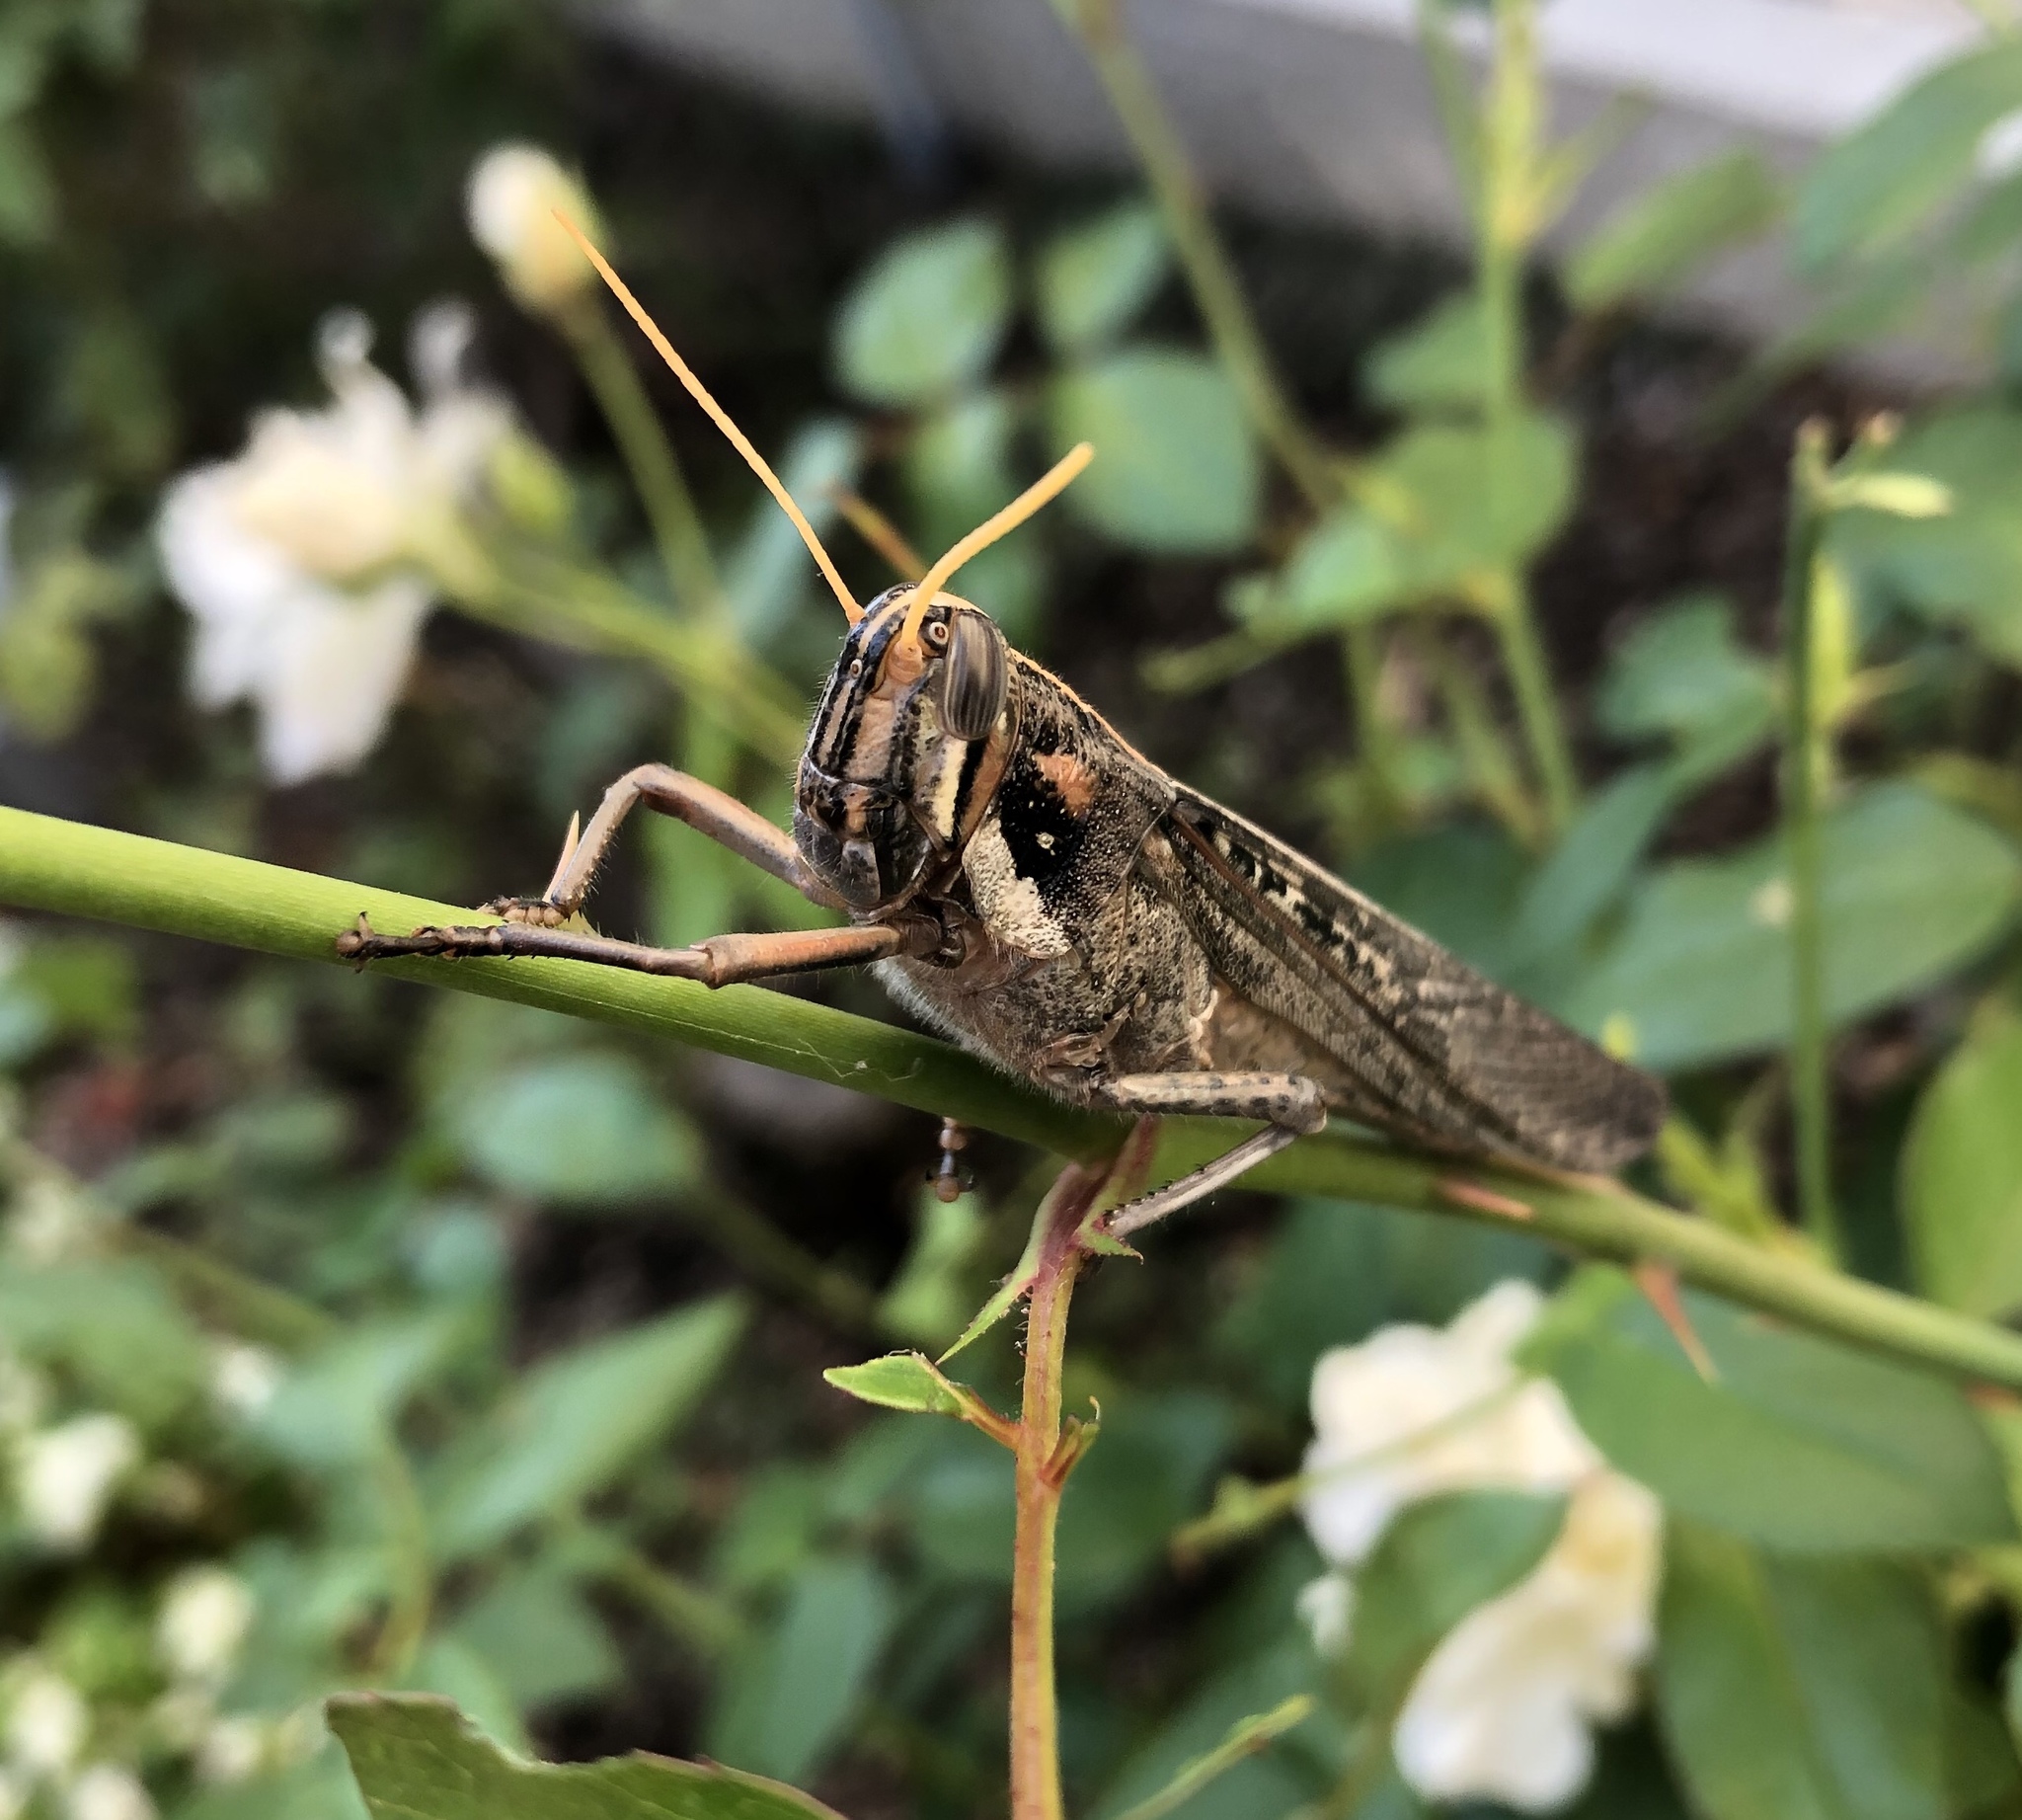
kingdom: Animalia
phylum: Arthropoda
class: Insecta
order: Orthoptera
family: Acrididae
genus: Schistocerca
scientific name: Schistocerca nitens
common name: Vagrant grasshopper
